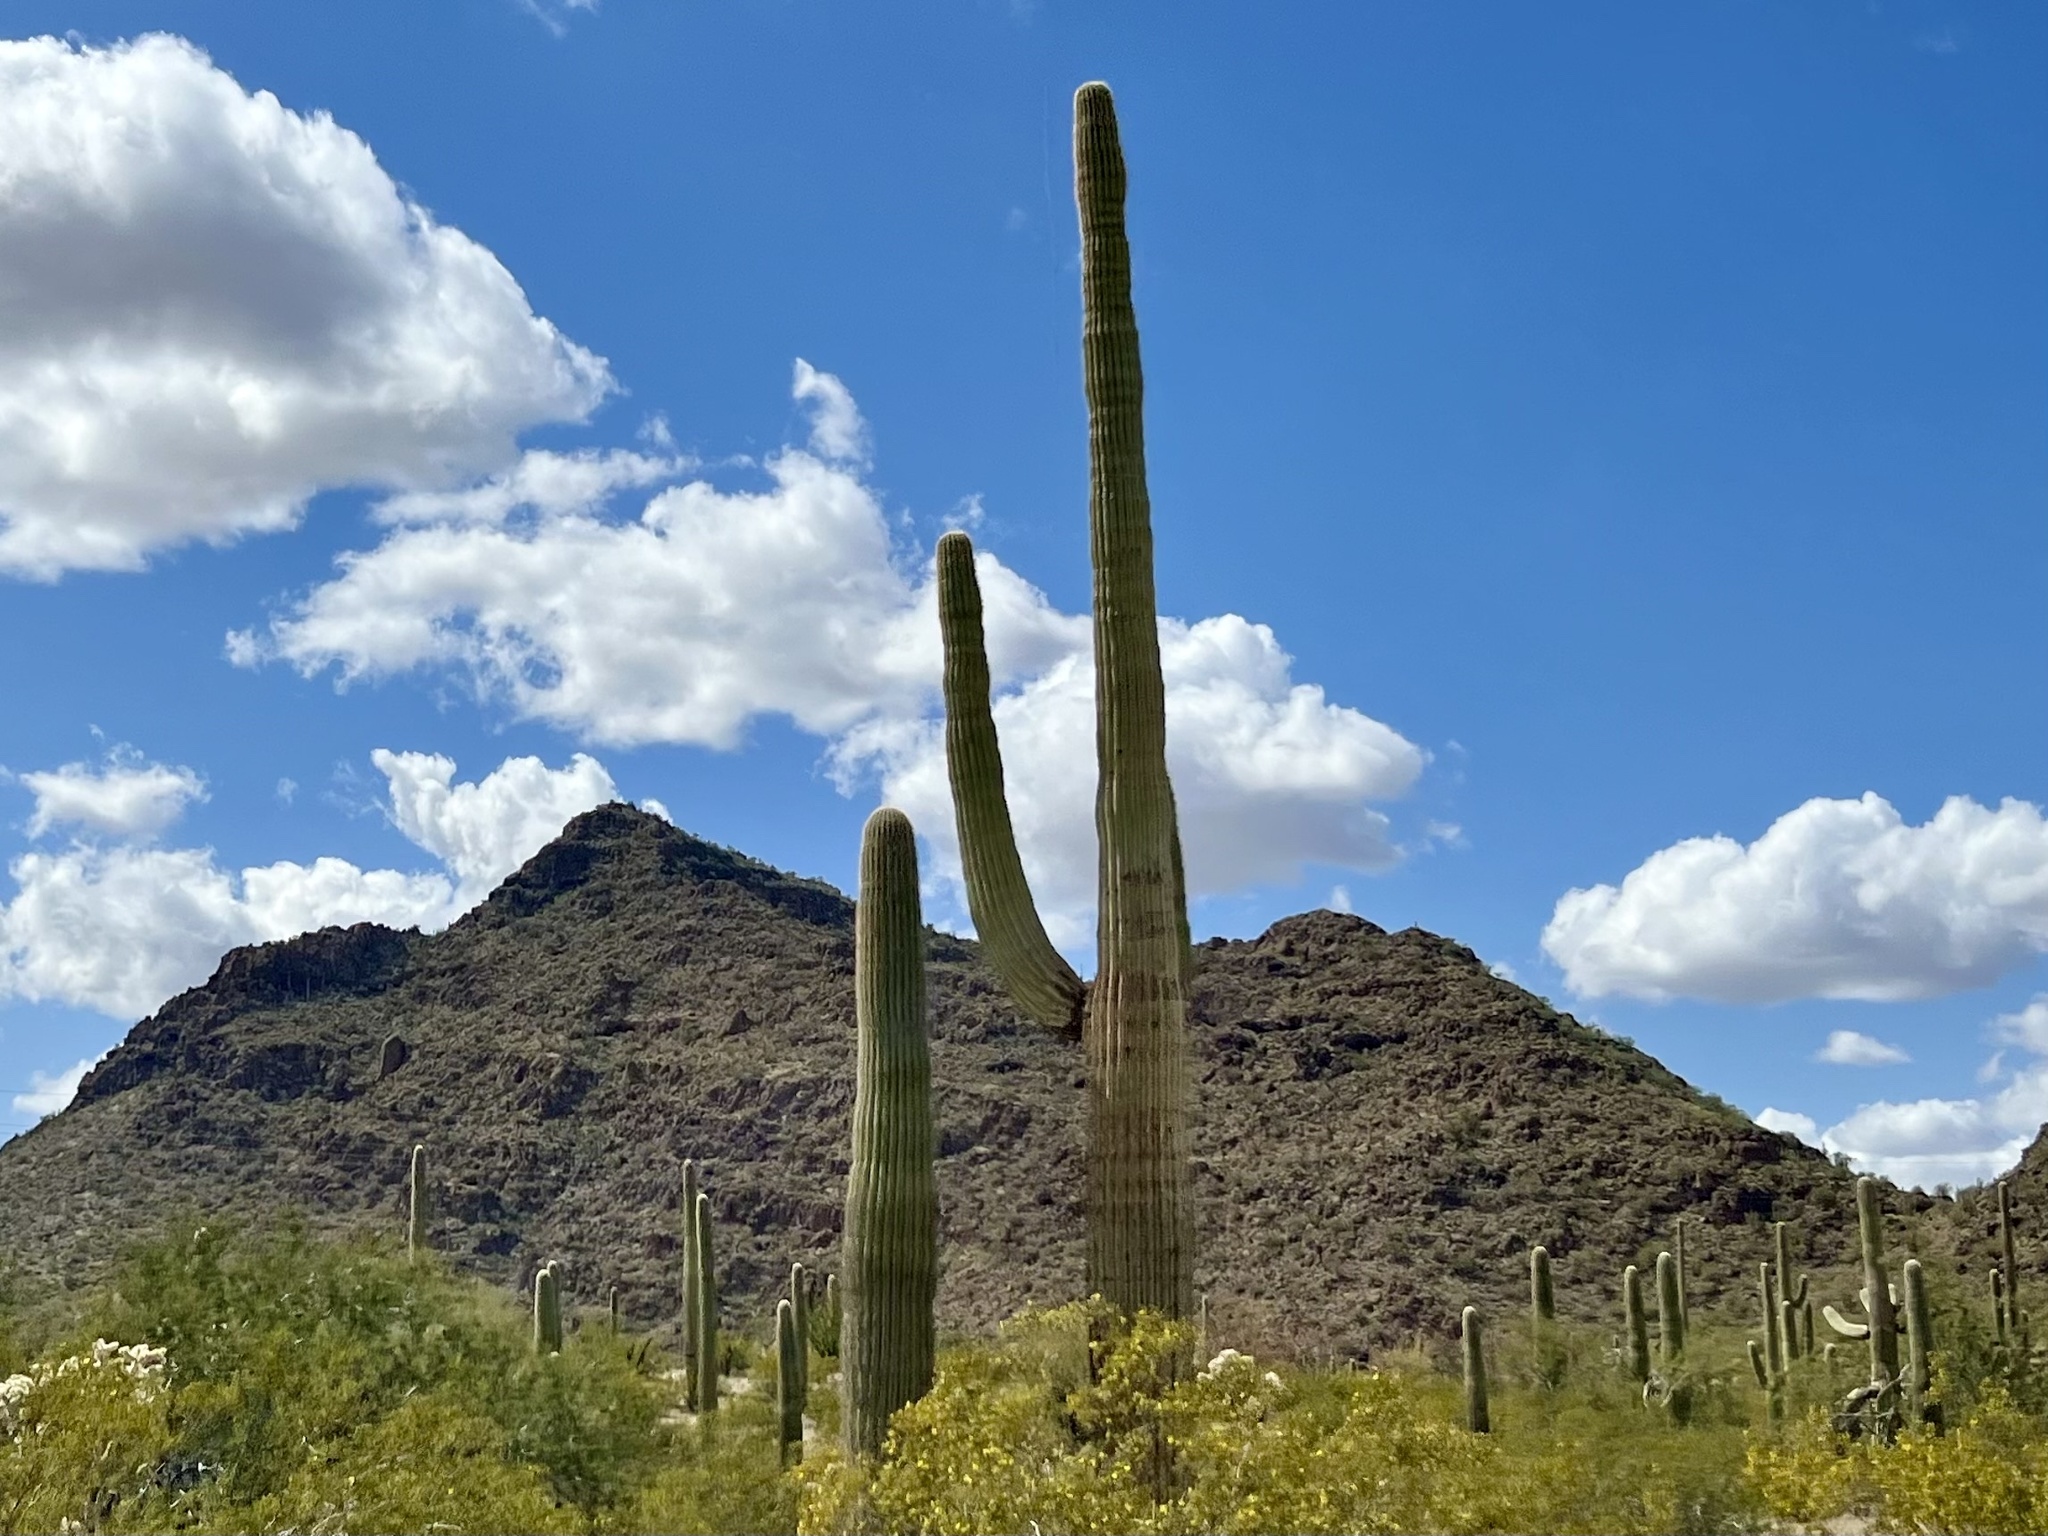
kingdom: Plantae
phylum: Tracheophyta
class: Magnoliopsida
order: Caryophyllales
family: Cactaceae
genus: Carnegiea
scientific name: Carnegiea gigantea
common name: Saguaro
